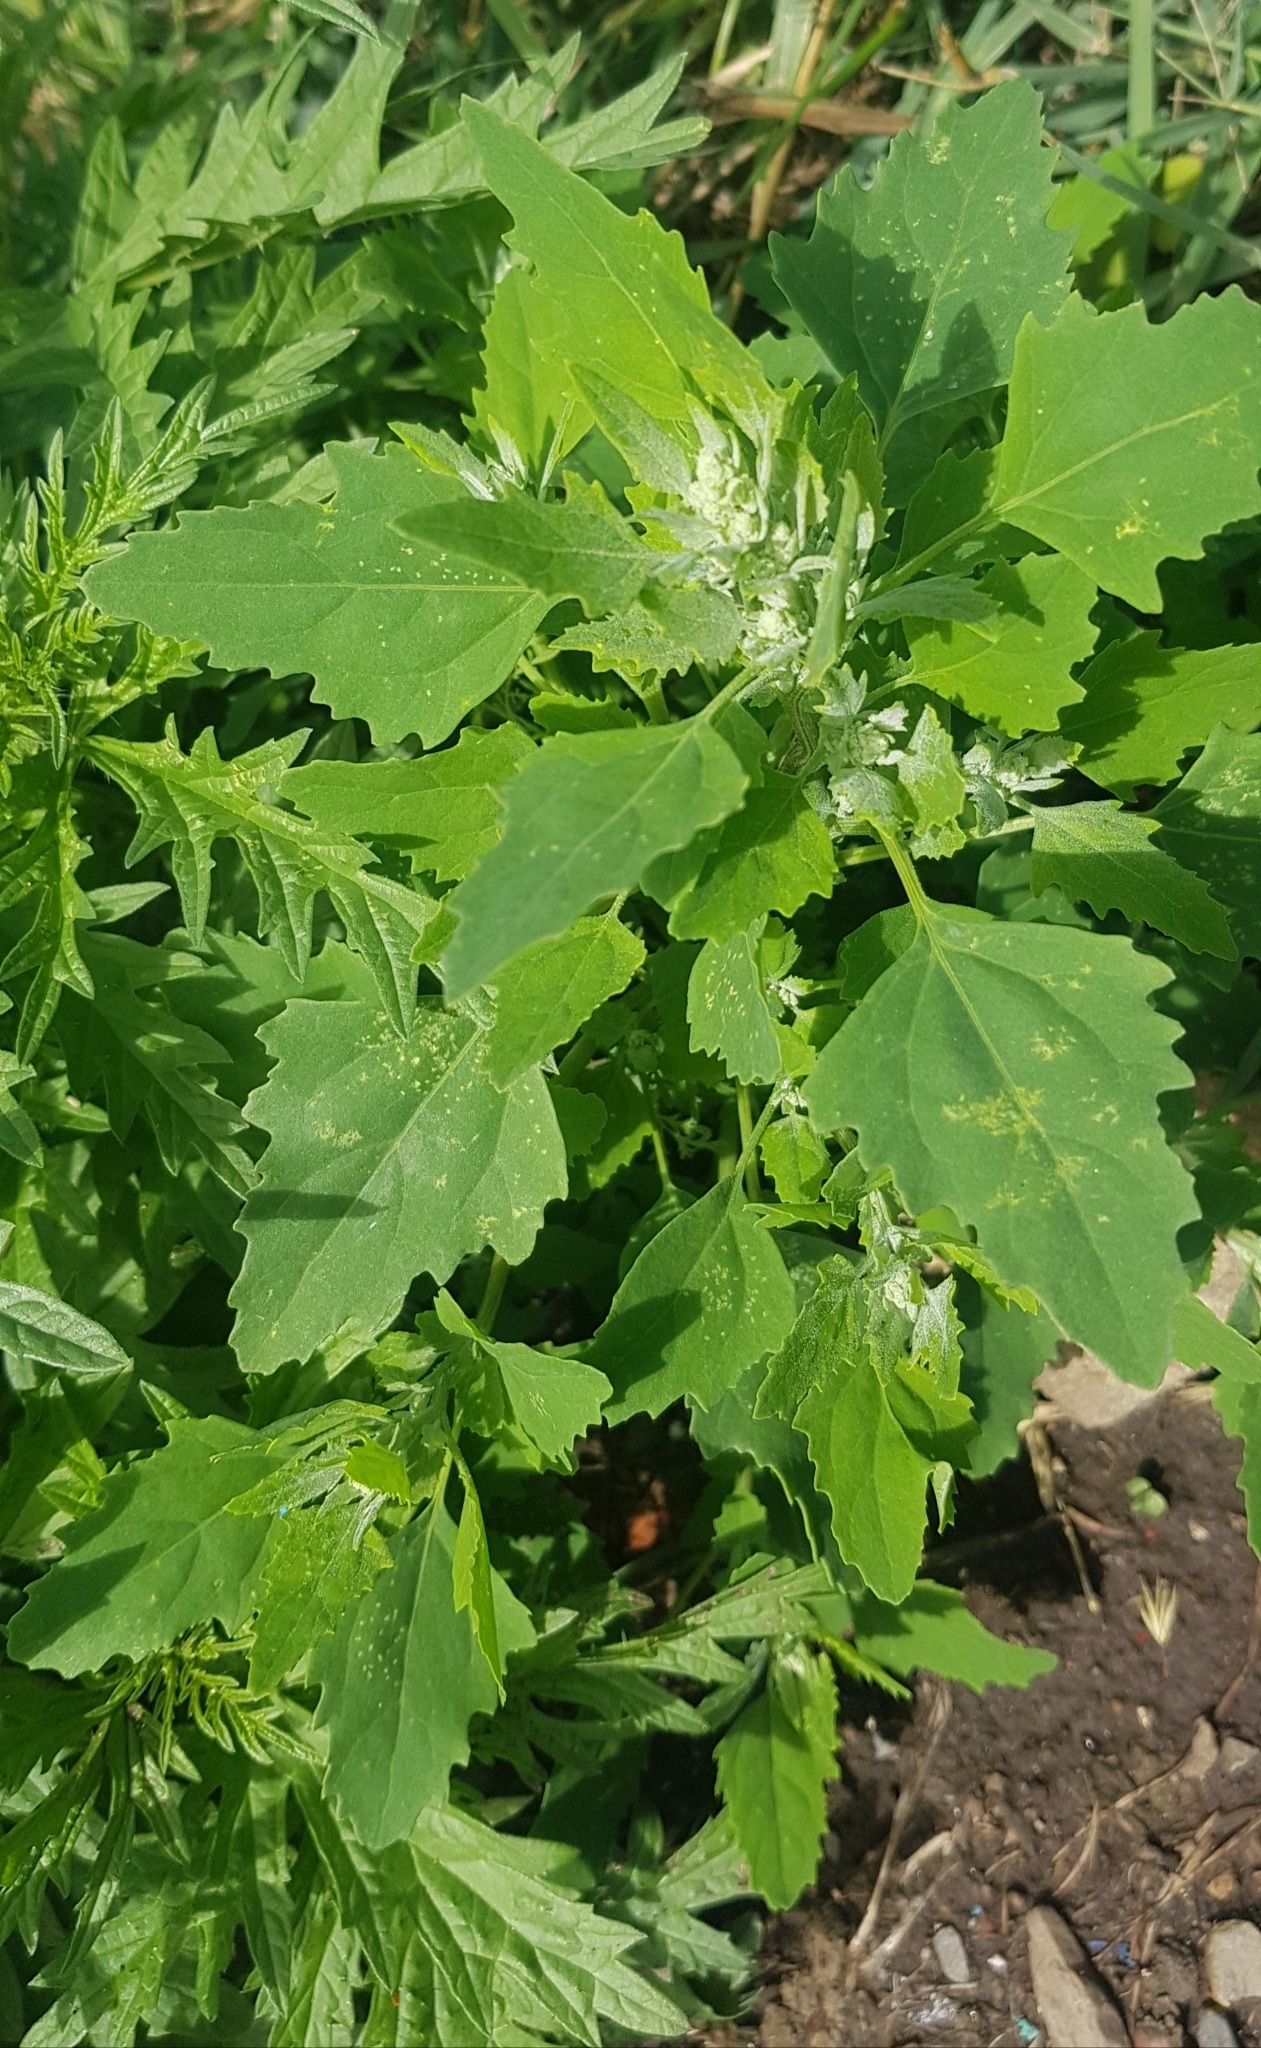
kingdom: Plantae
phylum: Tracheophyta
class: Magnoliopsida
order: Caryophyllales
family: Amaranthaceae
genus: Chenopodium
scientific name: Chenopodium album
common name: Fat-hen
